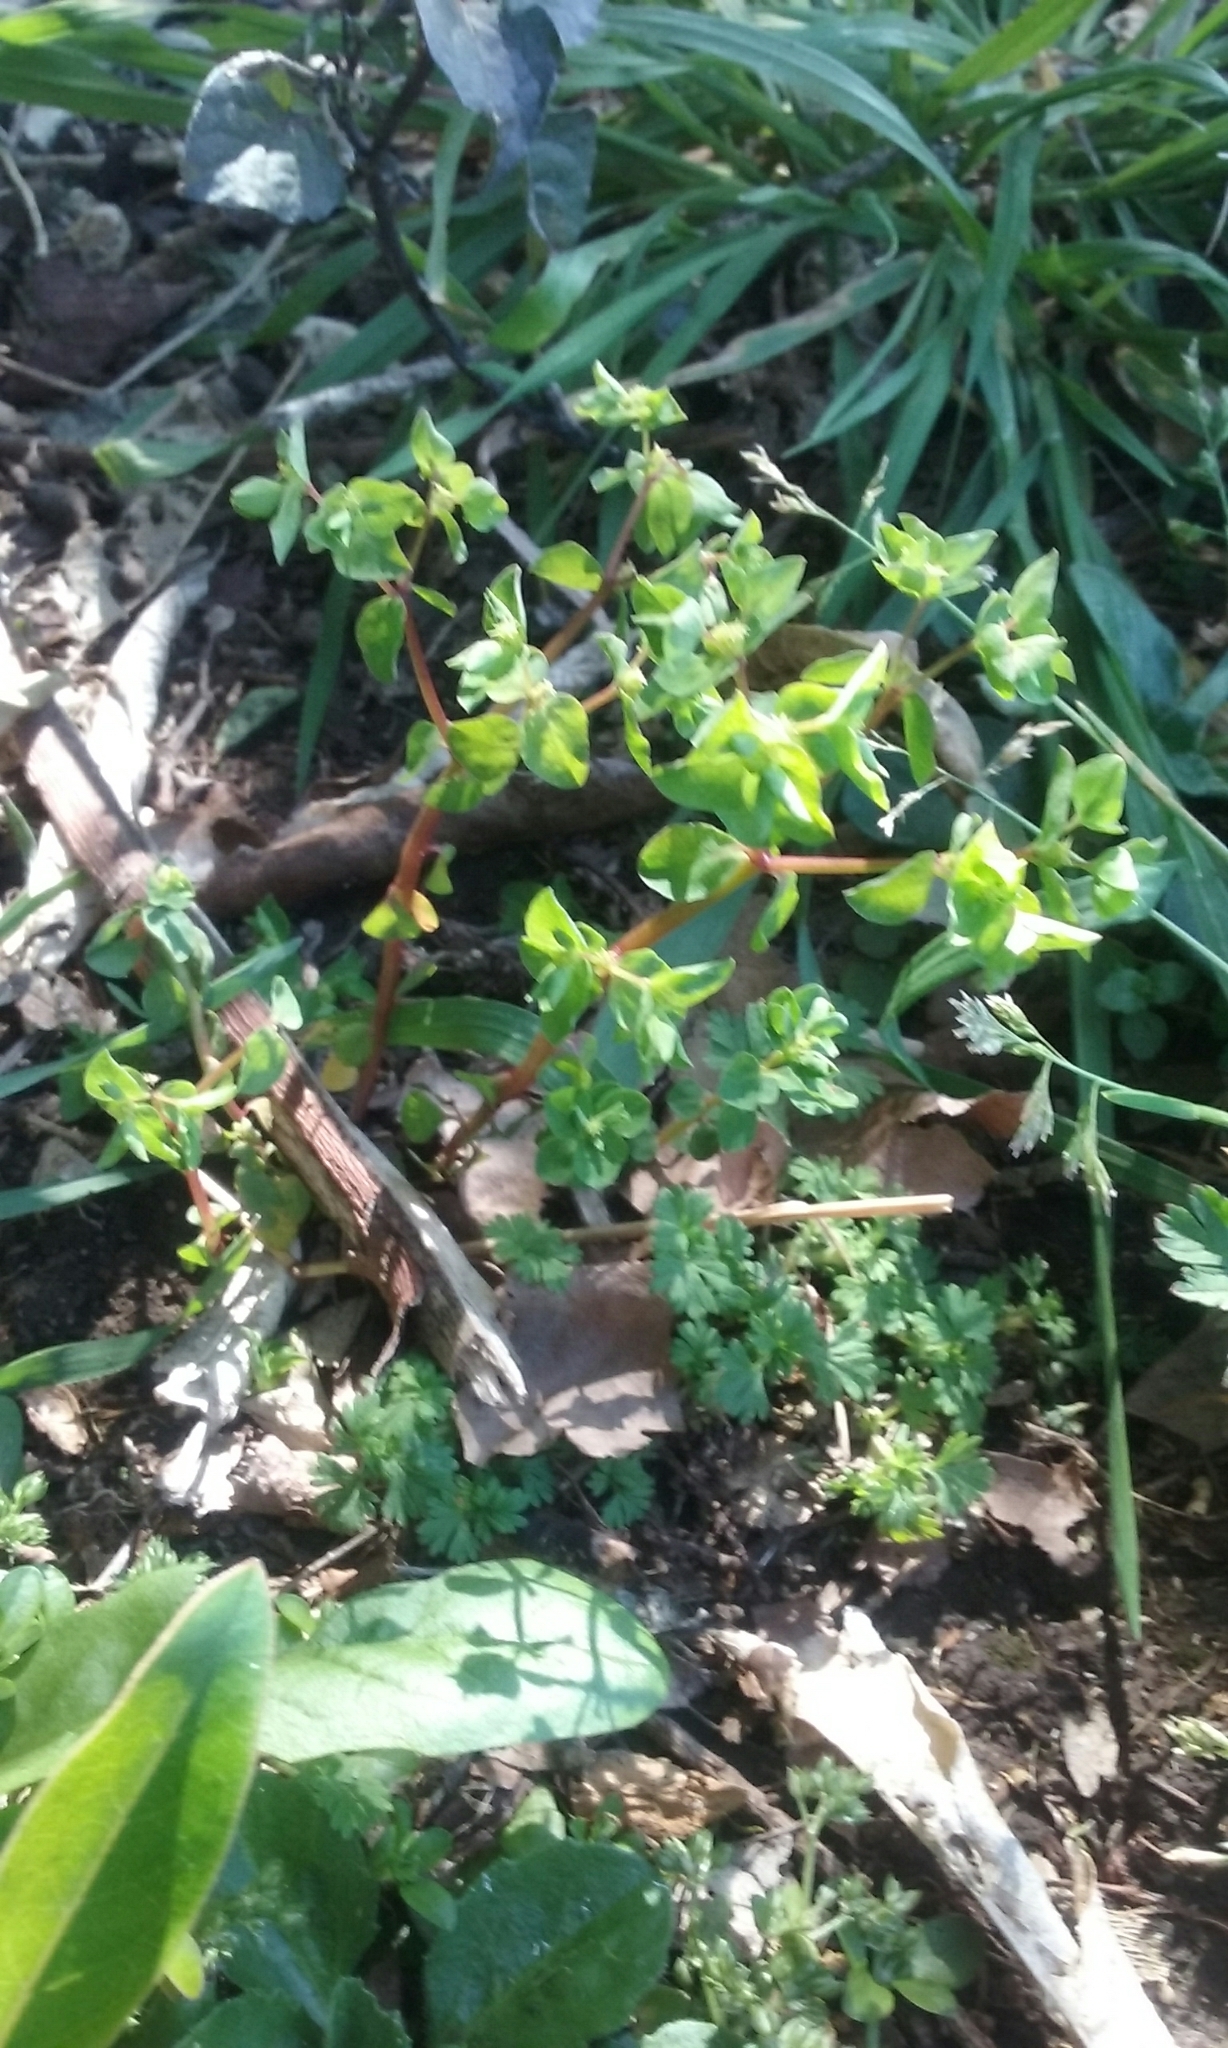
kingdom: Plantae
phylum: Tracheophyta
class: Magnoliopsida
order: Malpighiales
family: Euphorbiaceae
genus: Euphorbia
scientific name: Euphorbia peplus
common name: Petty spurge
